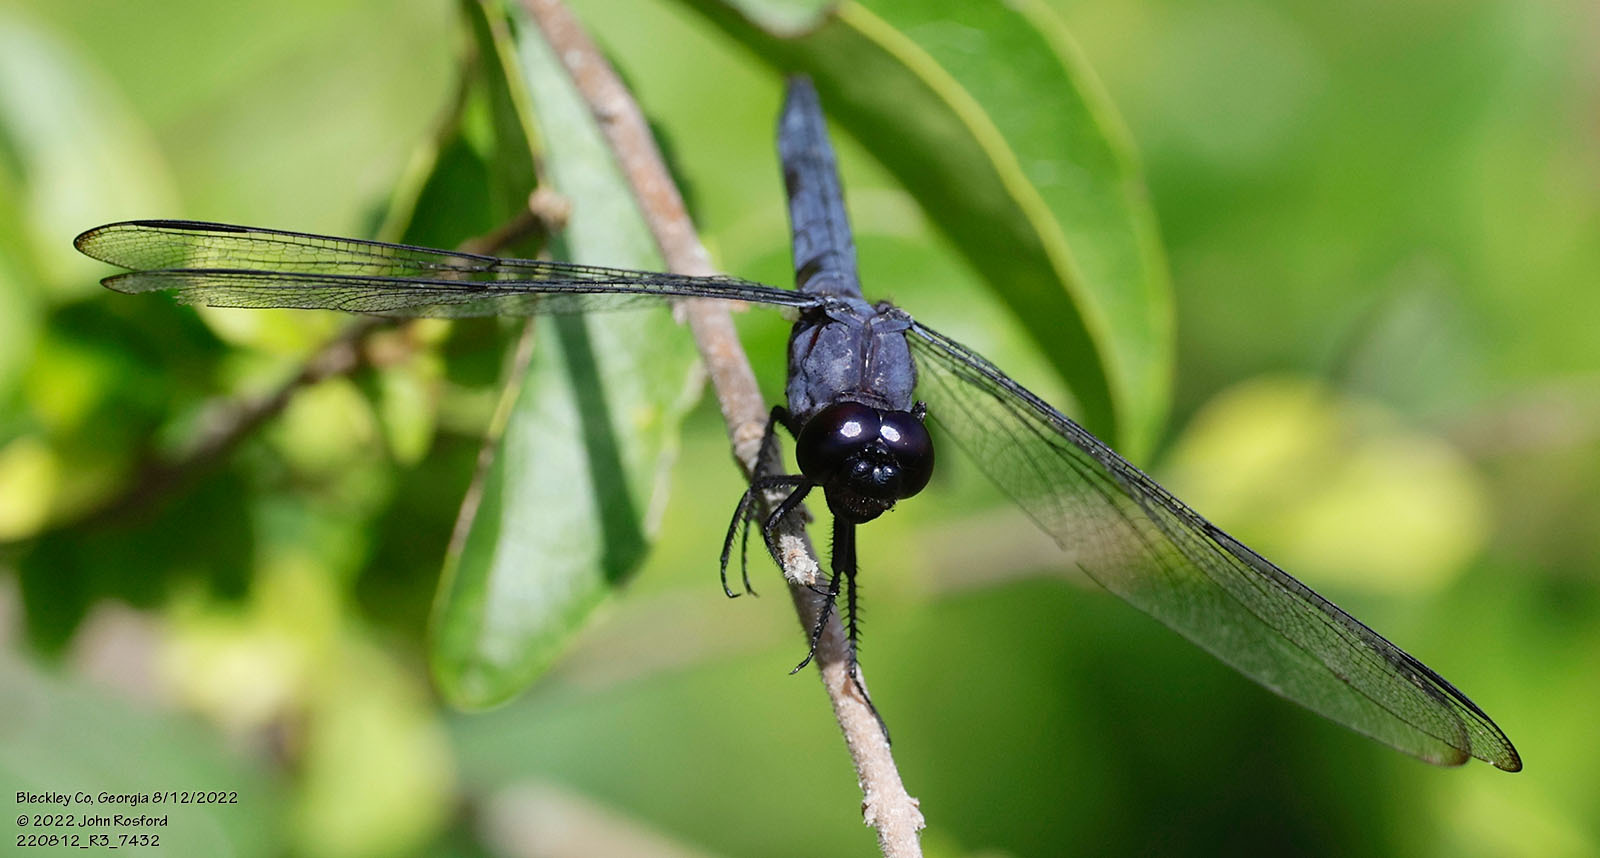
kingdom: Animalia
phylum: Arthropoda
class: Insecta
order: Odonata
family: Libellulidae
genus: Libellula
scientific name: Libellula incesta
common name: Slaty skimmer
